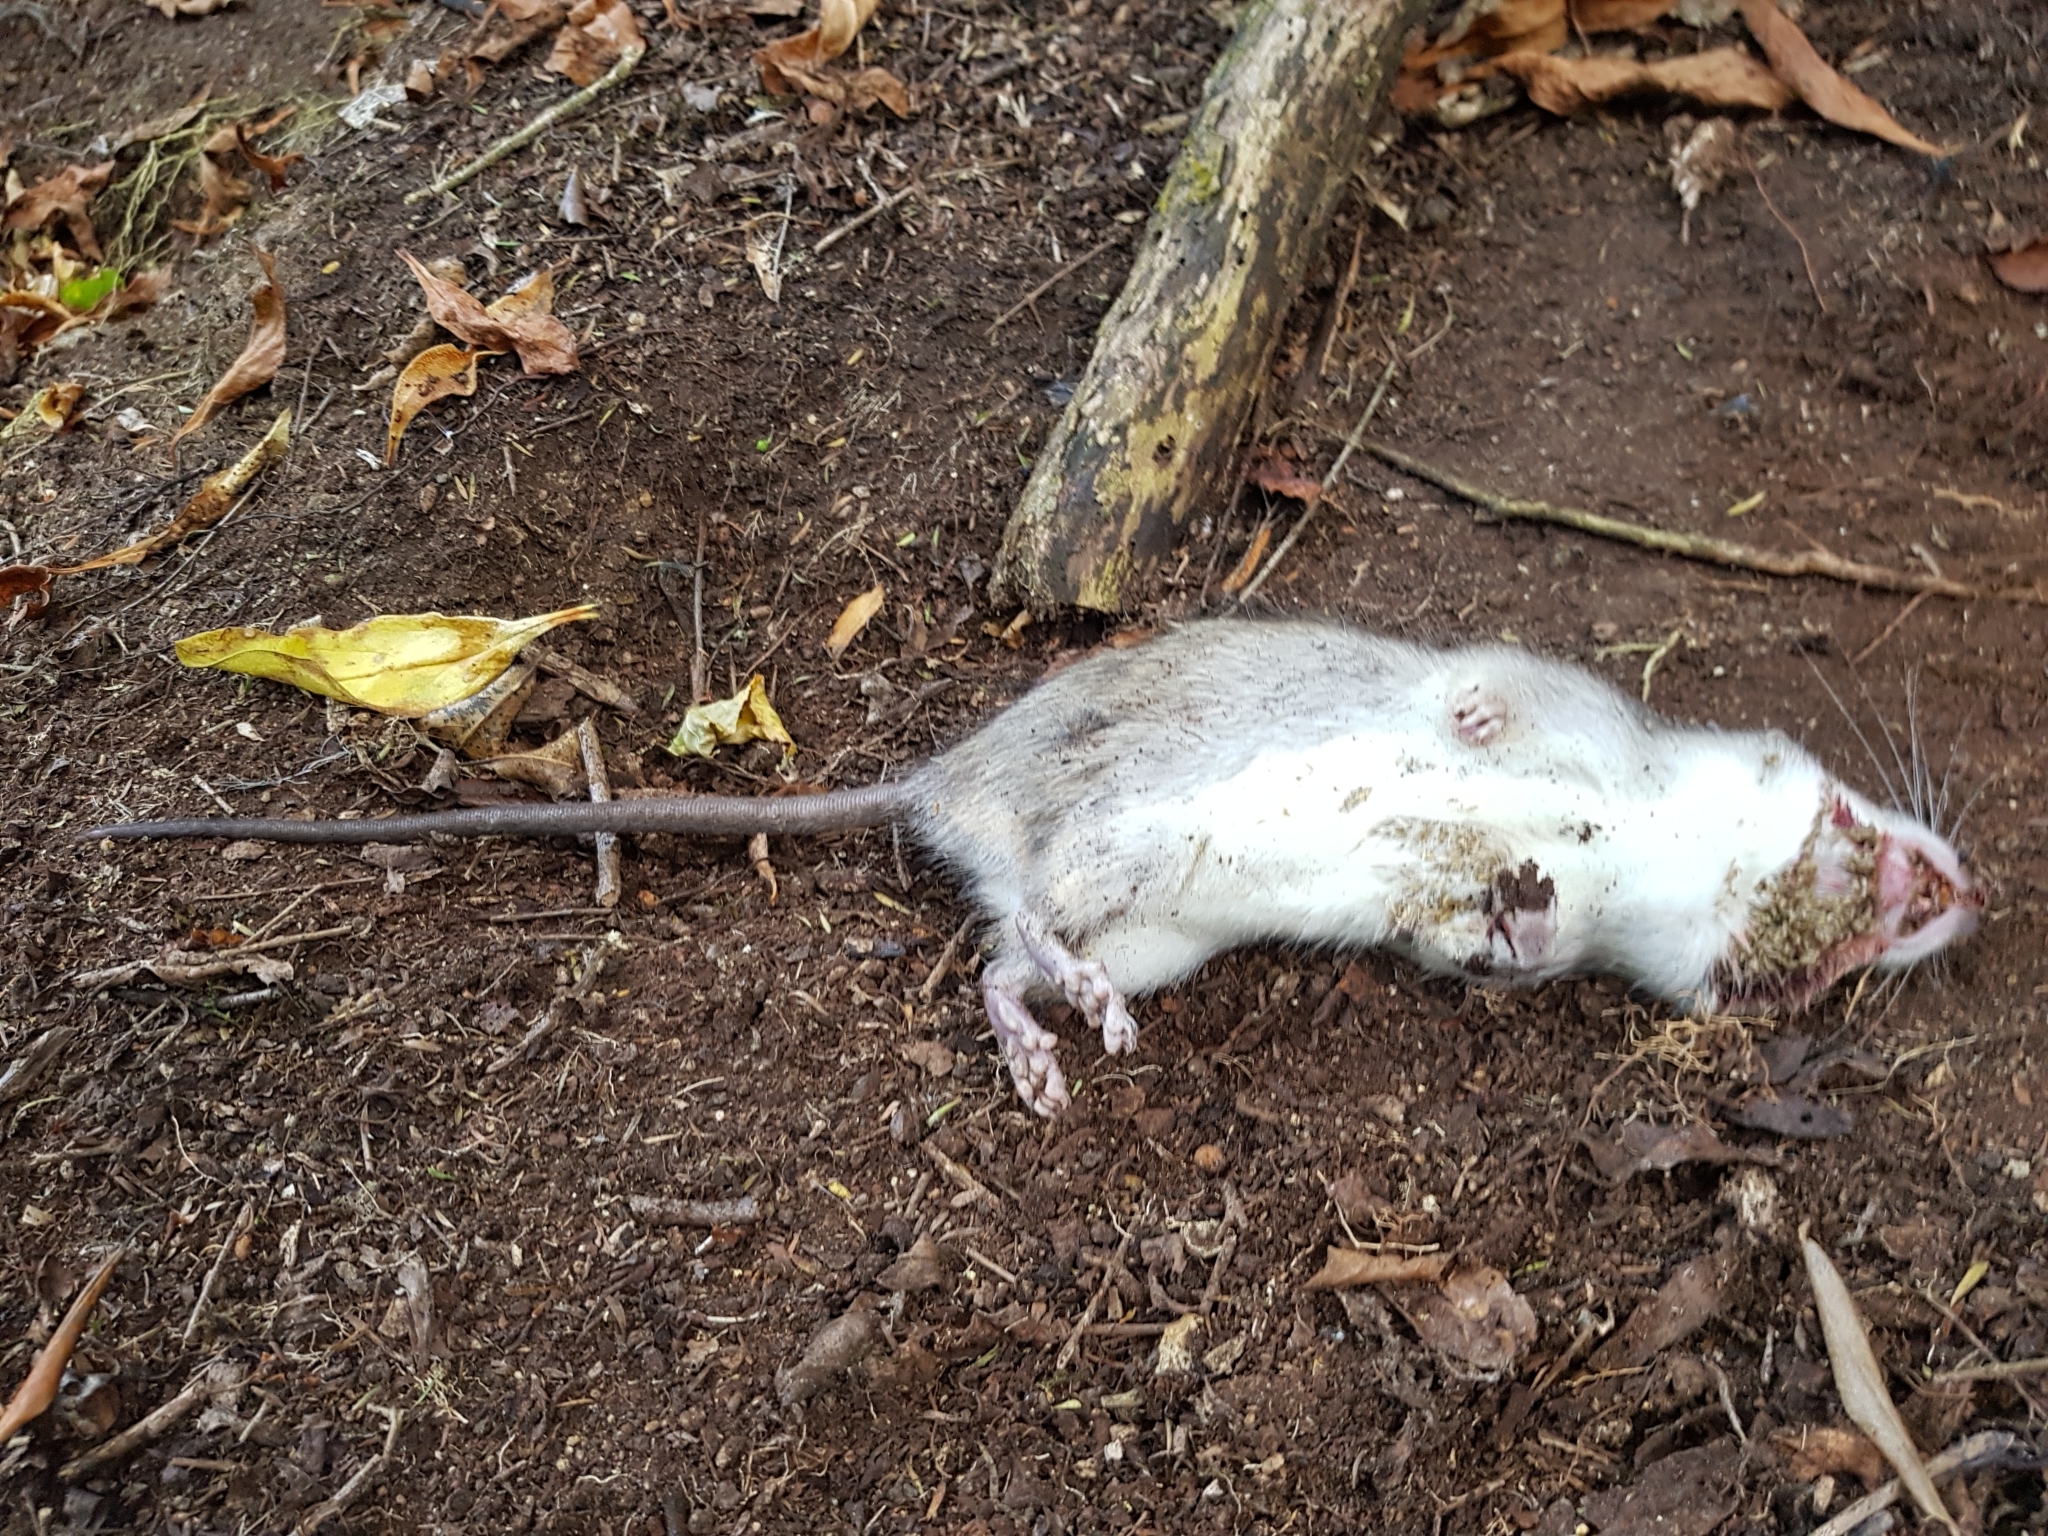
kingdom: Animalia
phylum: Chordata
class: Mammalia
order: Rodentia
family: Muridae
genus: Rattus
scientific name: Rattus rattus
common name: Black rat
